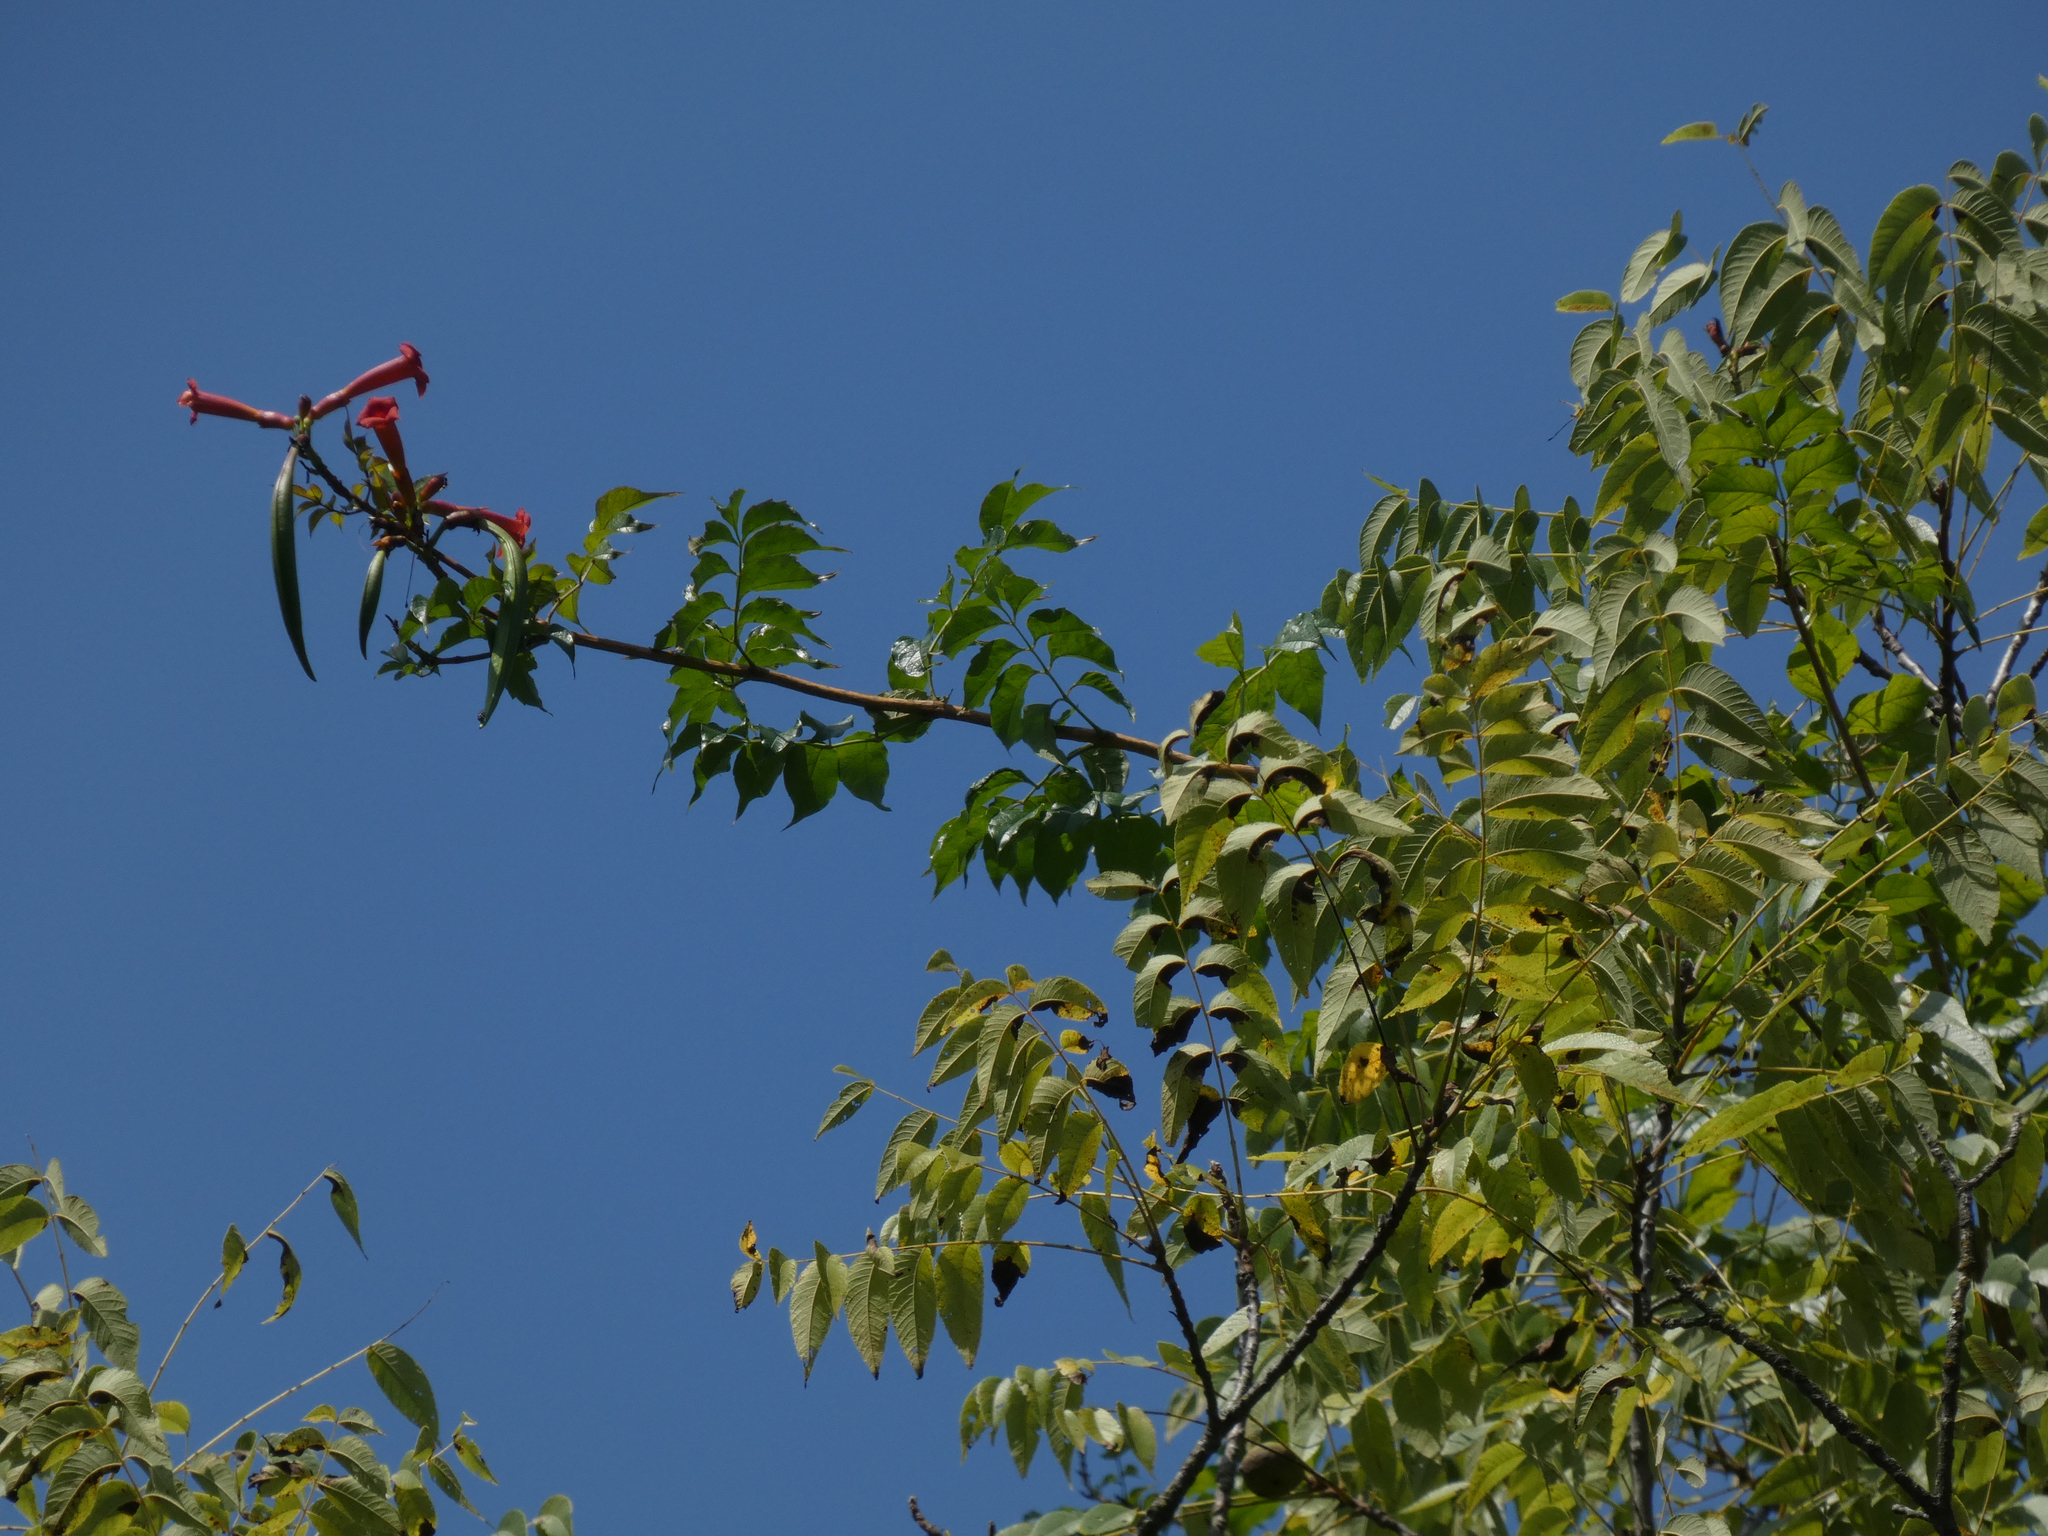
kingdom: Plantae
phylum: Tracheophyta
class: Magnoliopsida
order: Lamiales
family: Bignoniaceae
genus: Campsis
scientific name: Campsis radicans
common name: Trumpet-creeper
